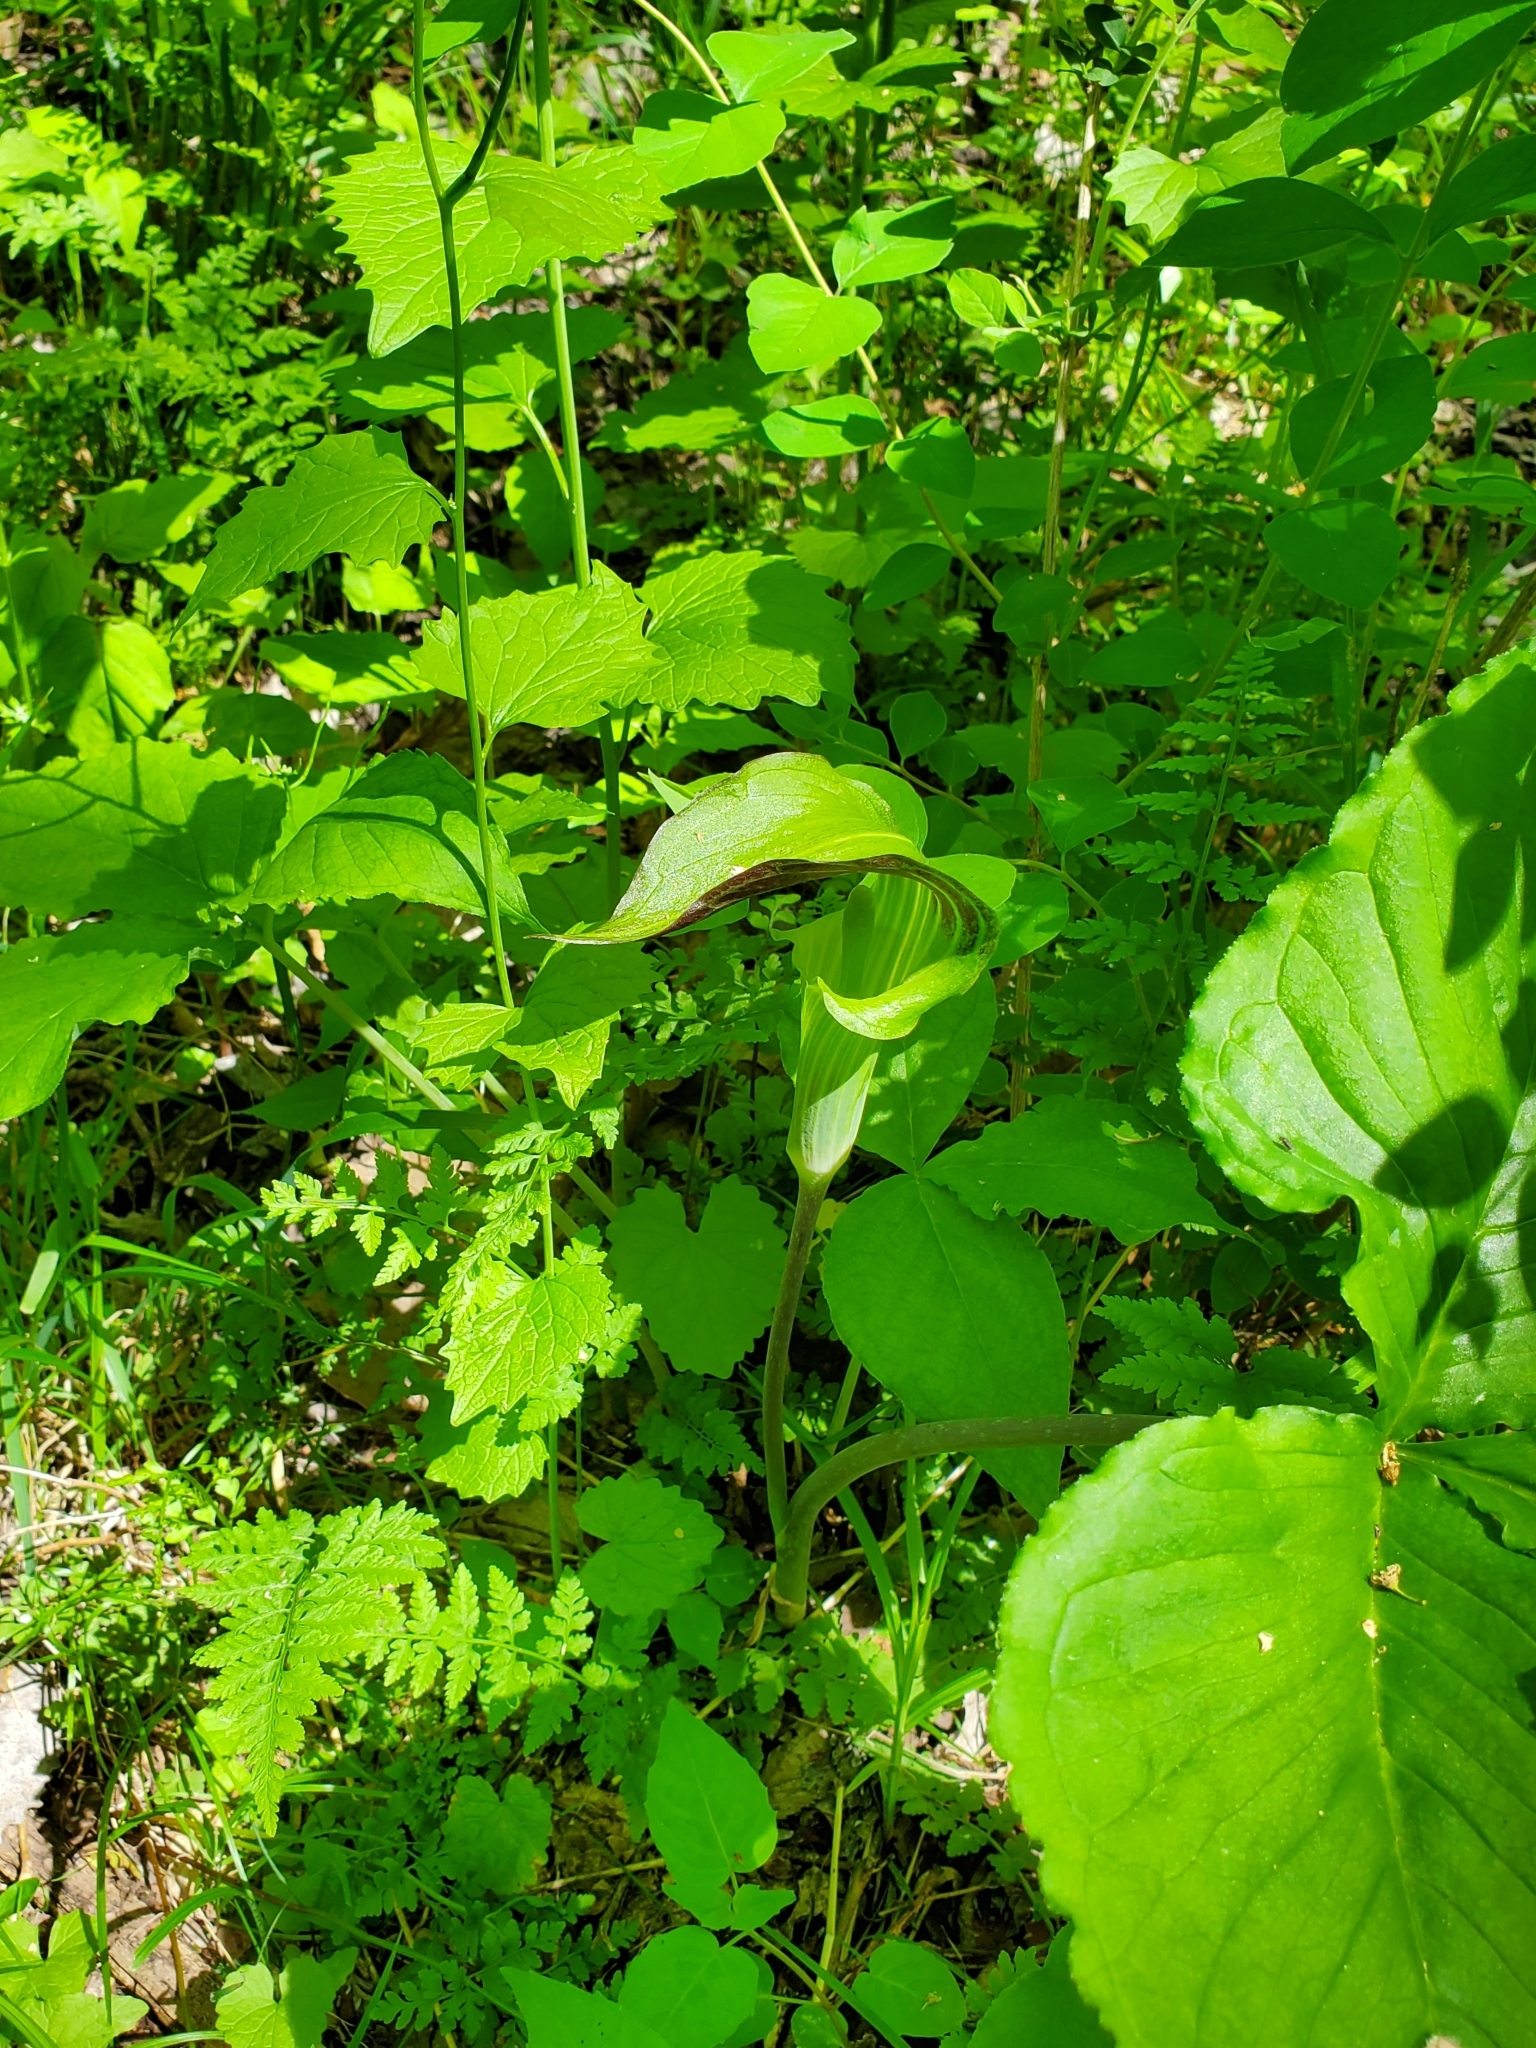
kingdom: Plantae
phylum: Tracheophyta
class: Liliopsida
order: Alismatales
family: Araceae
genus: Arisaema
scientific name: Arisaema triphyllum
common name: Jack-in-the-pulpit
